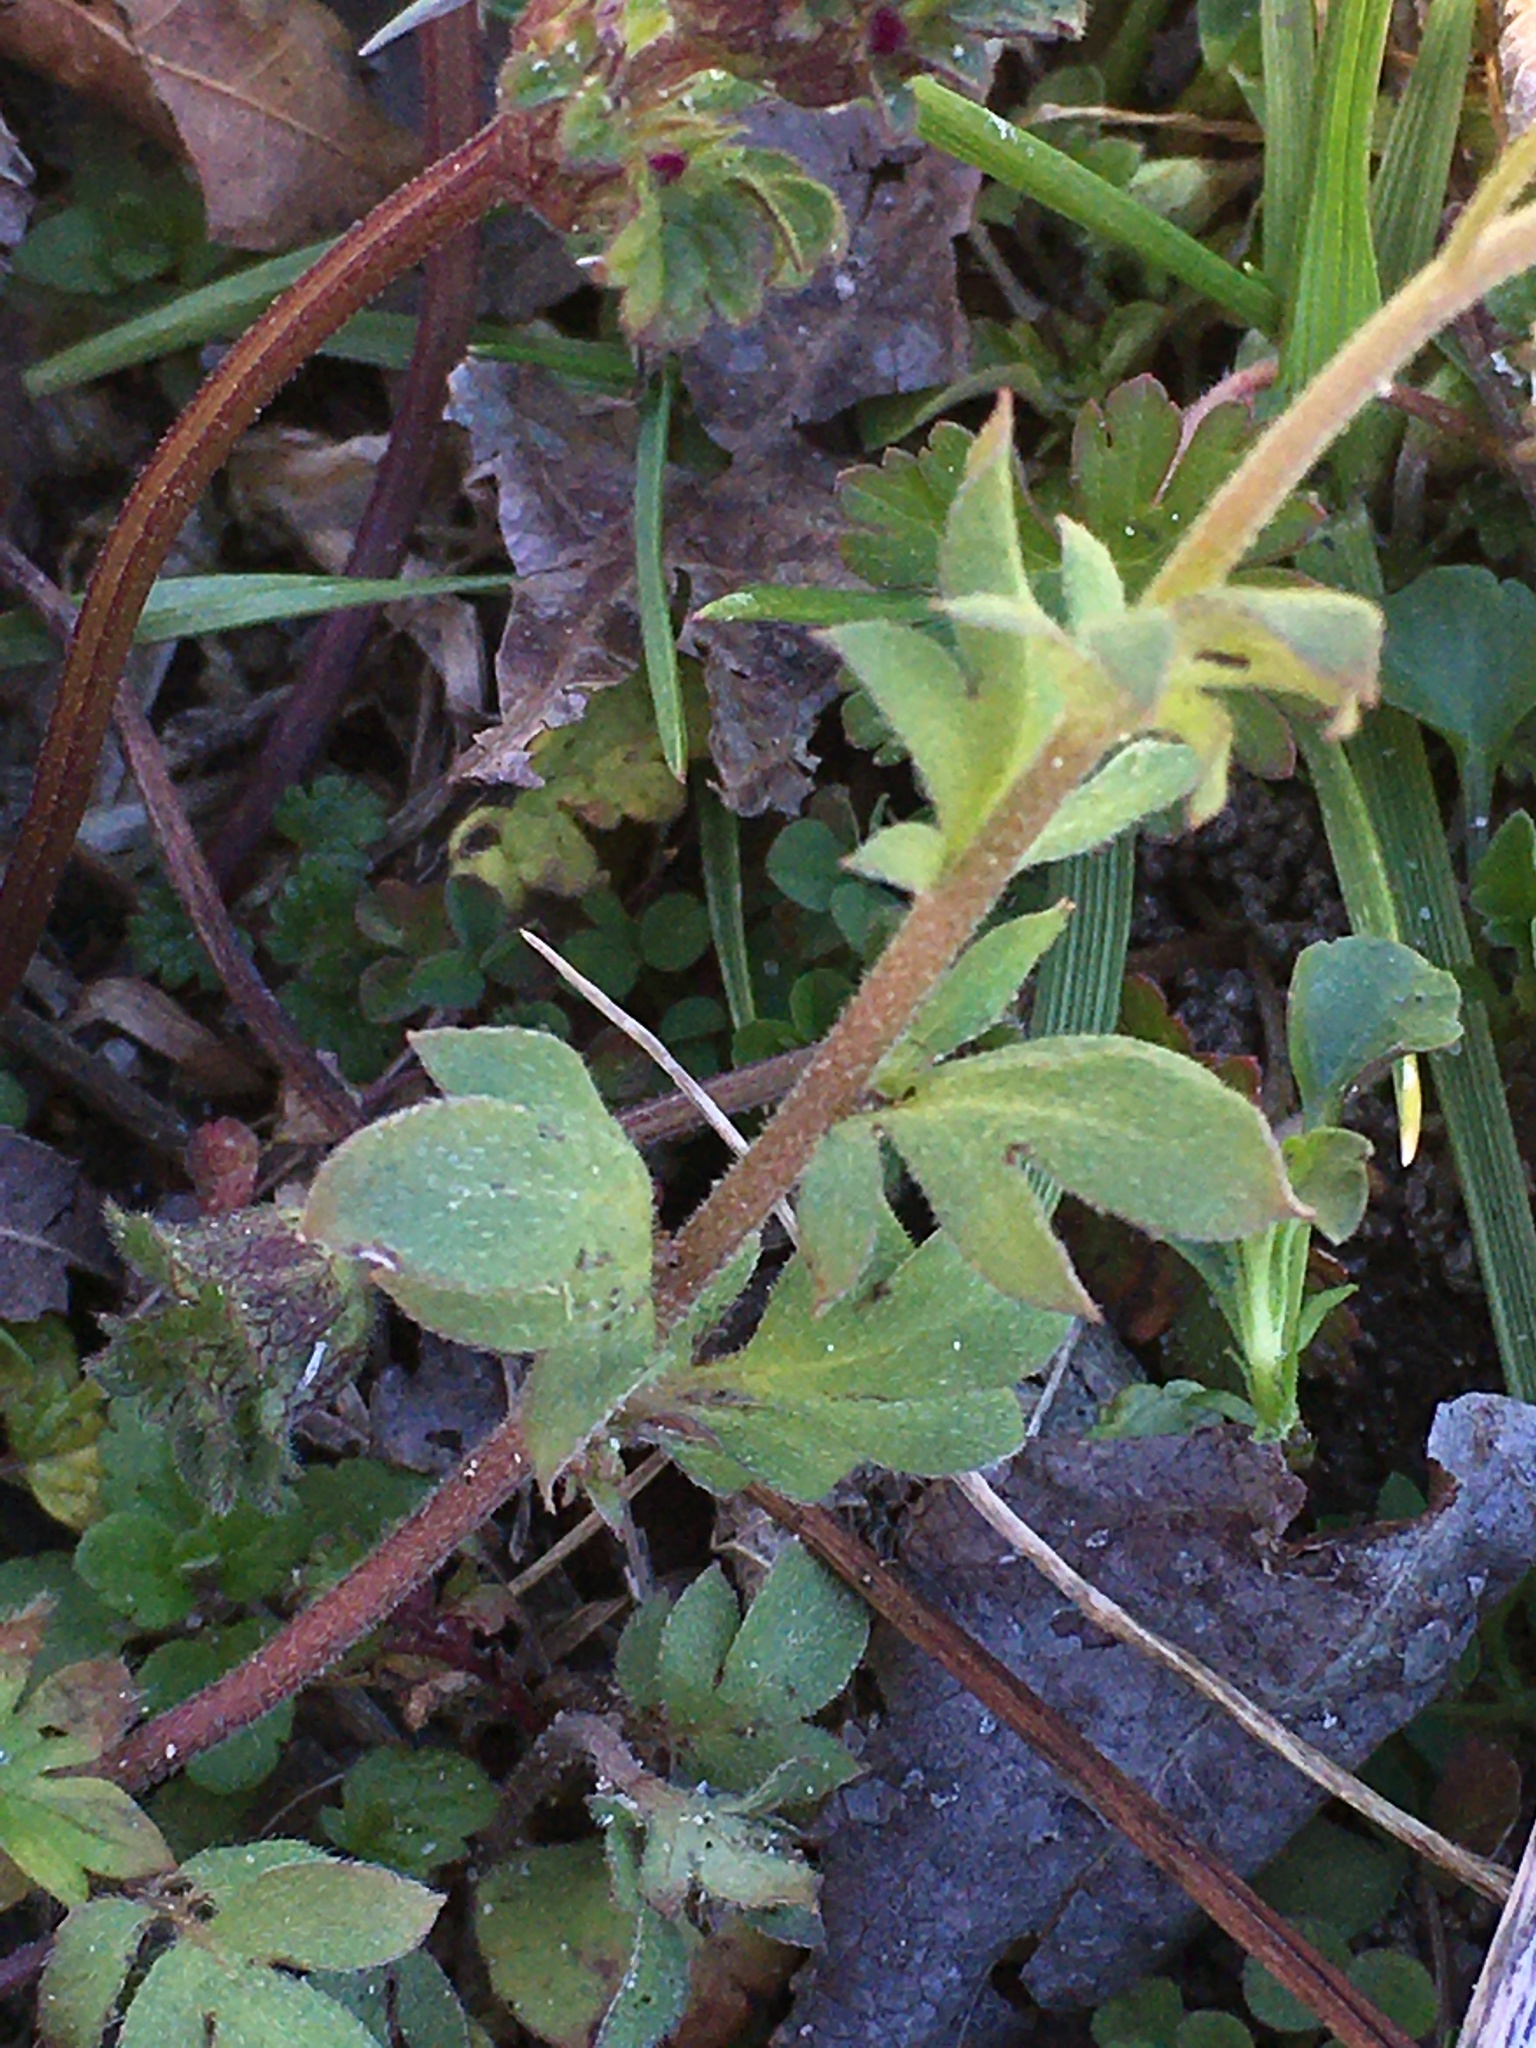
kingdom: Plantae
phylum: Tracheophyta
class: Magnoliopsida
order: Boraginales
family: Hydrophyllaceae
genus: Phacelia
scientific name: Phacelia dubia
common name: Appalachian phacelia
